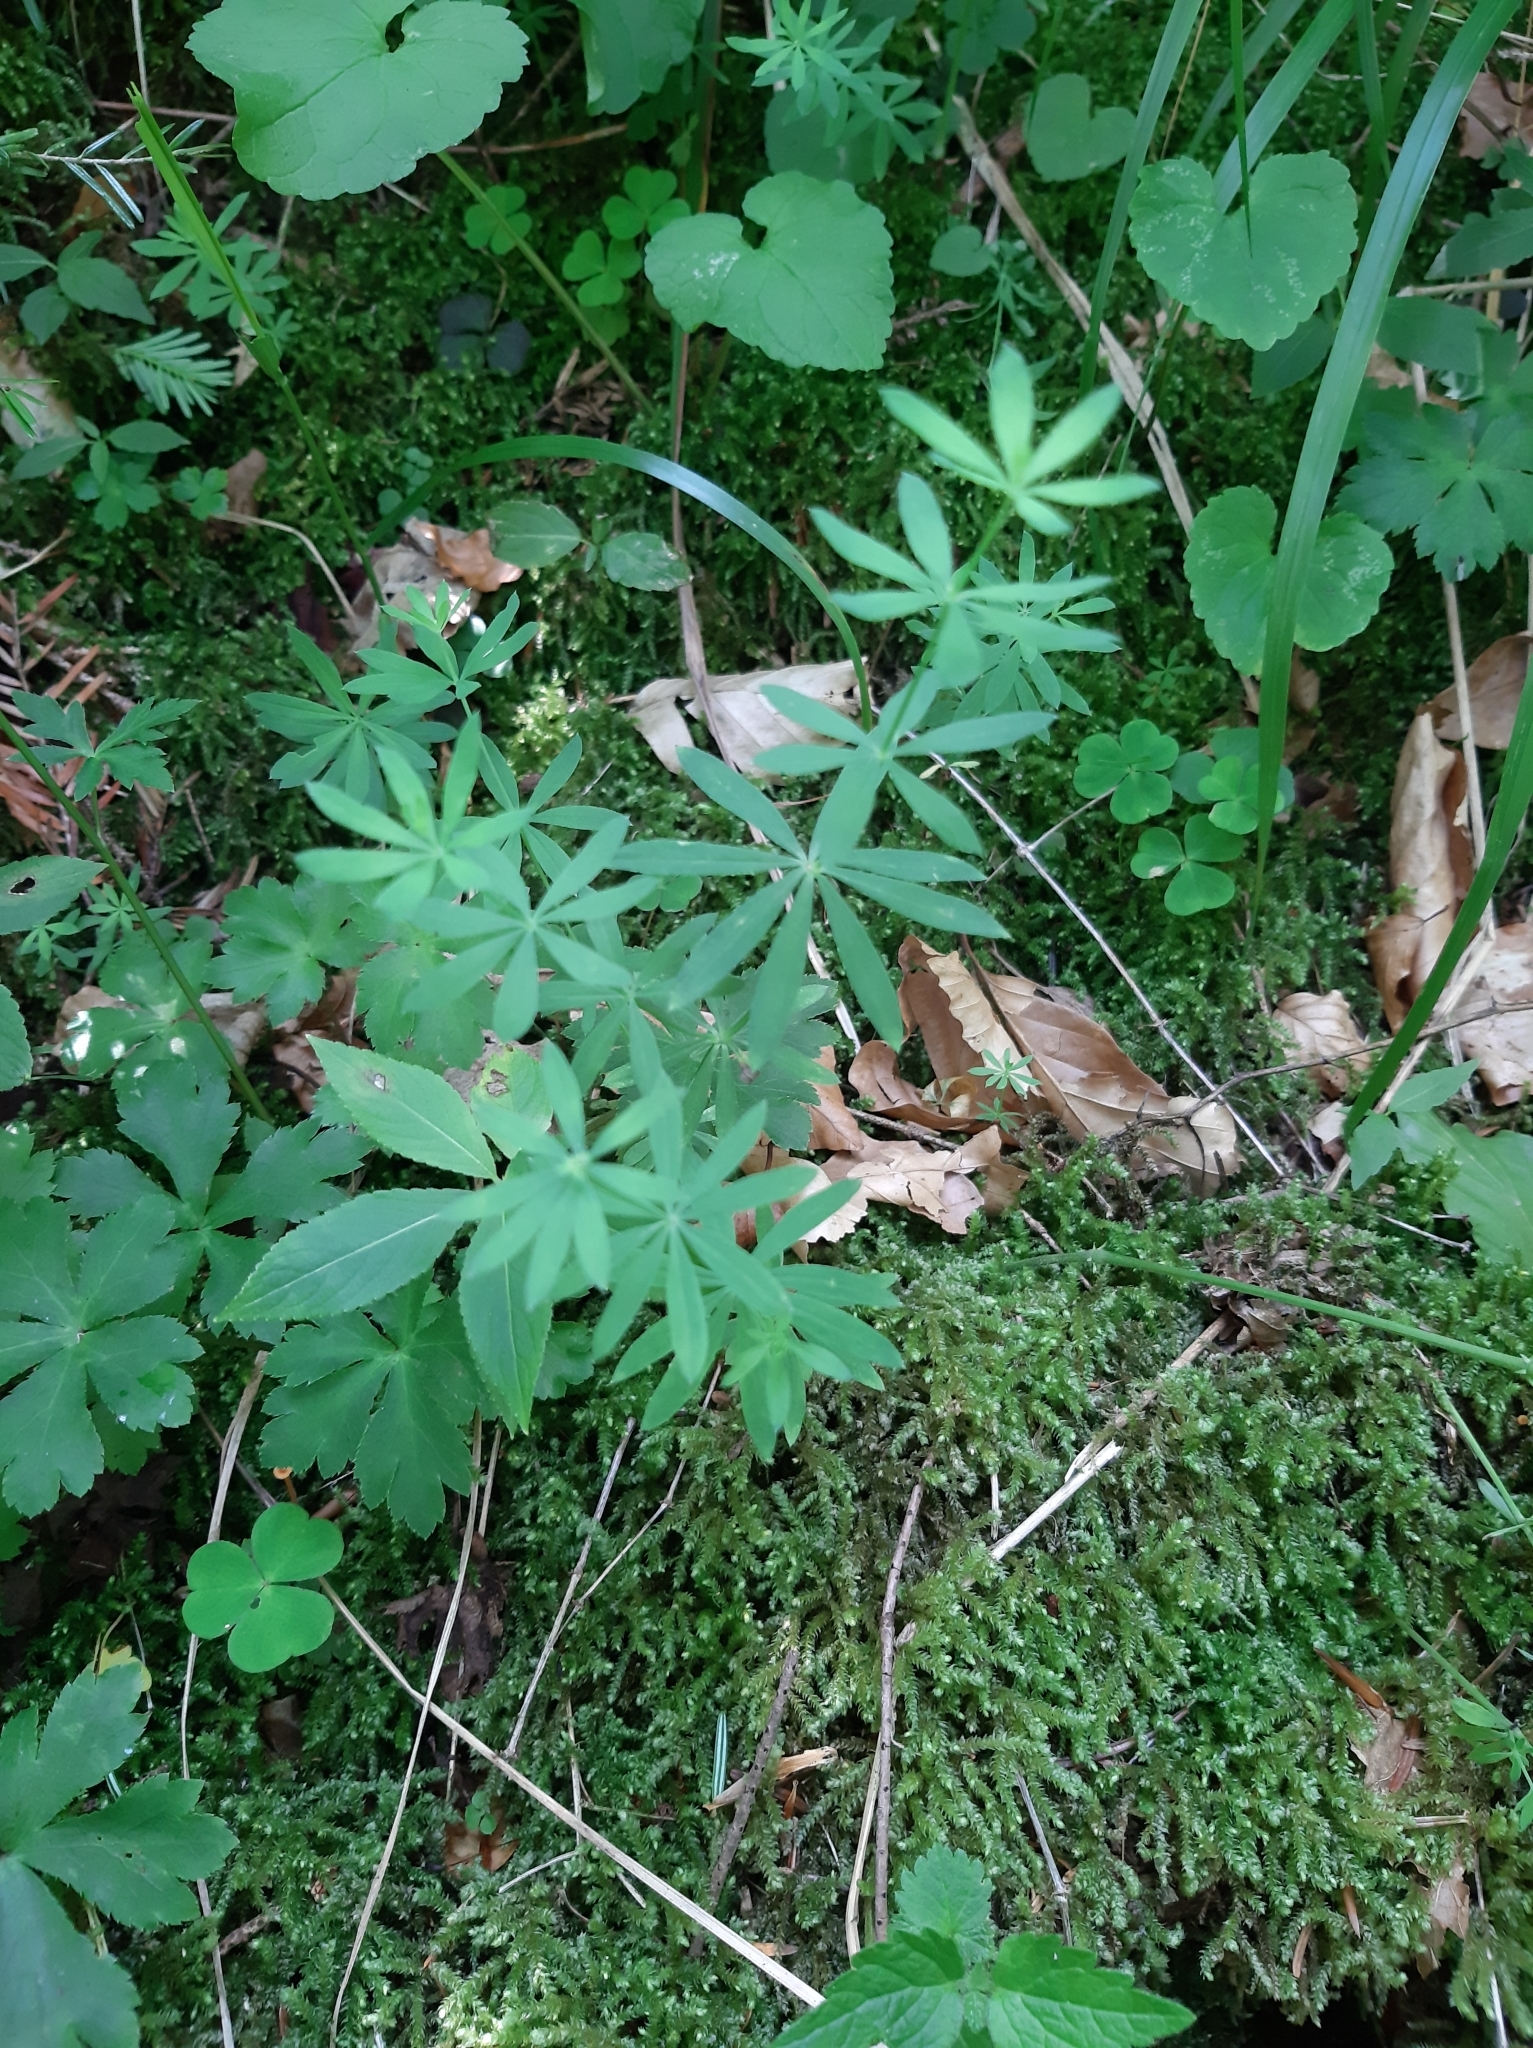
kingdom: Plantae
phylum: Tracheophyta
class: Magnoliopsida
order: Gentianales
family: Rubiaceae
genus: Galium
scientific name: Galium intermedium
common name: Bedstraw
